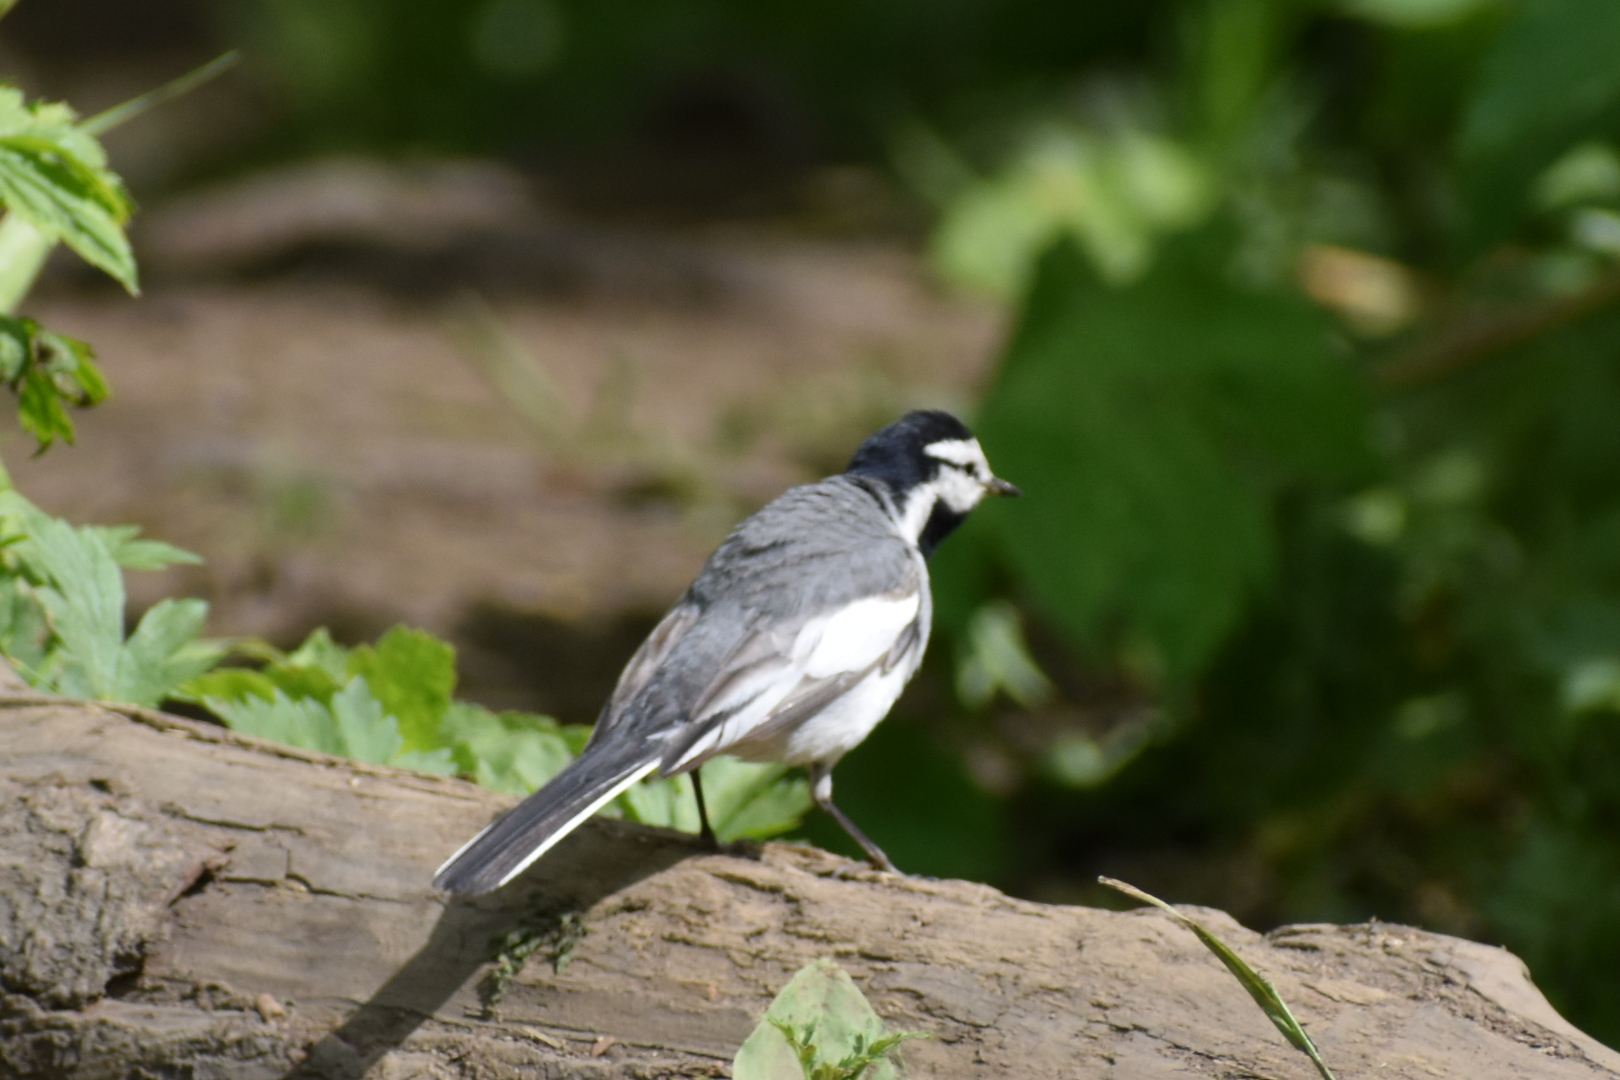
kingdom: Animalia
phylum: Chordata
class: Aves
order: Passeriformes
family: Motacillidae
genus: Motacilla
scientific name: Motacilla alba
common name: White wagtail
